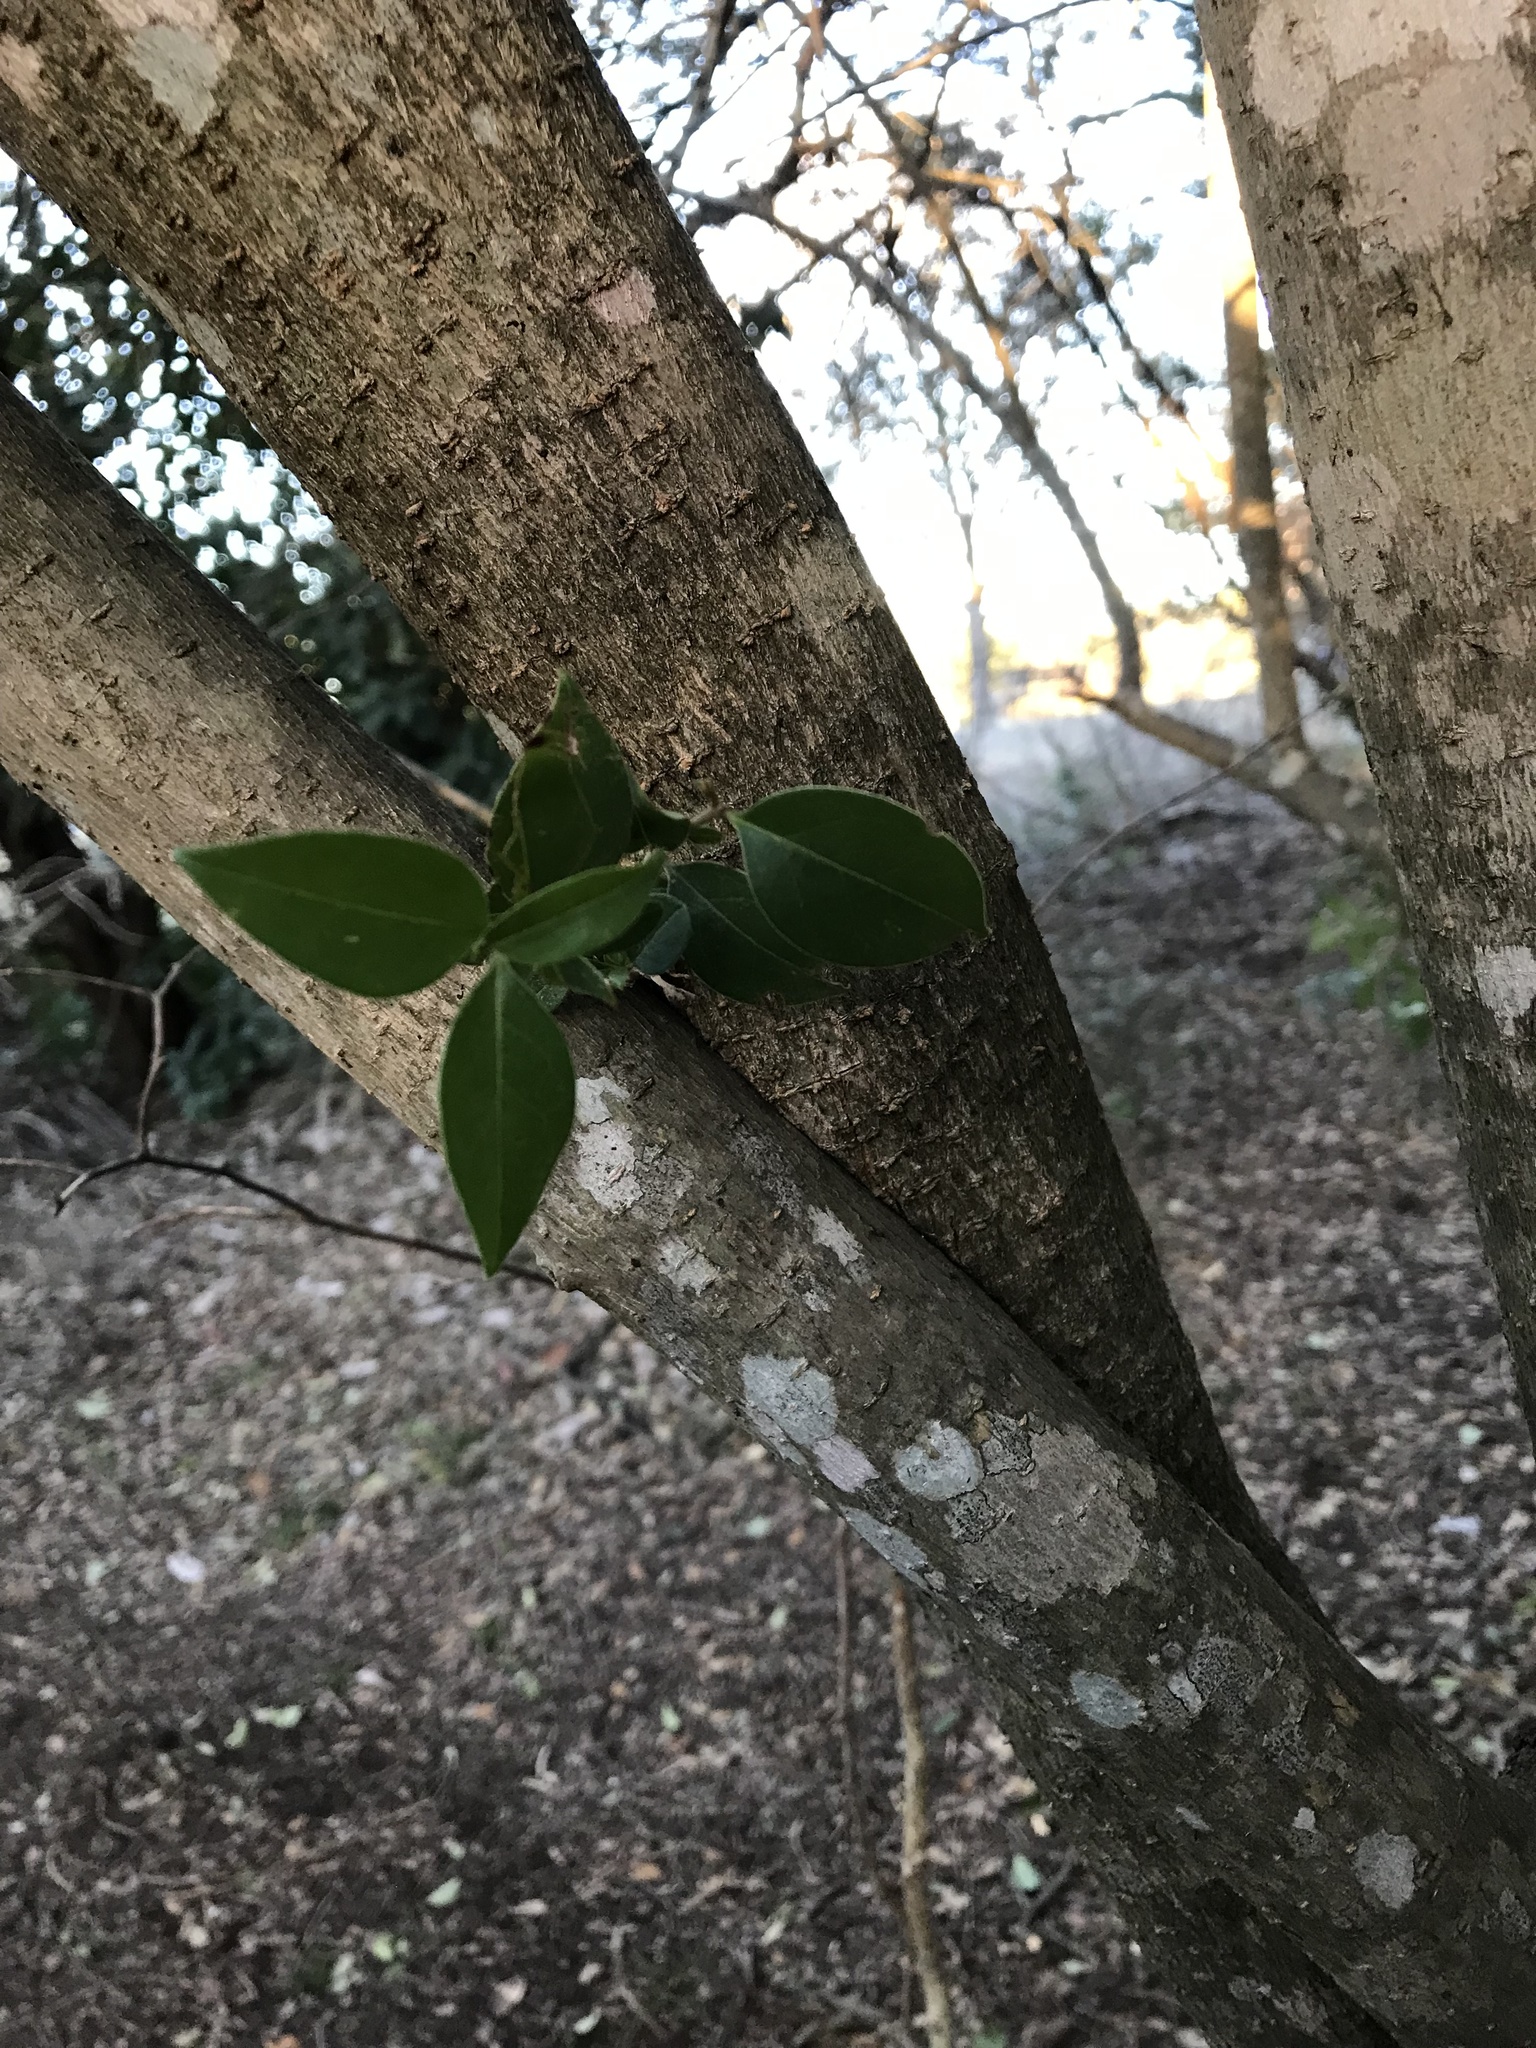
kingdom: Plantae
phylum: Tracheophyta
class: Magnoliopsida
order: Lamiales
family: Oleaceae
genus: Ligustrum
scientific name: Ligustrum lucidum
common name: Glossy privet
